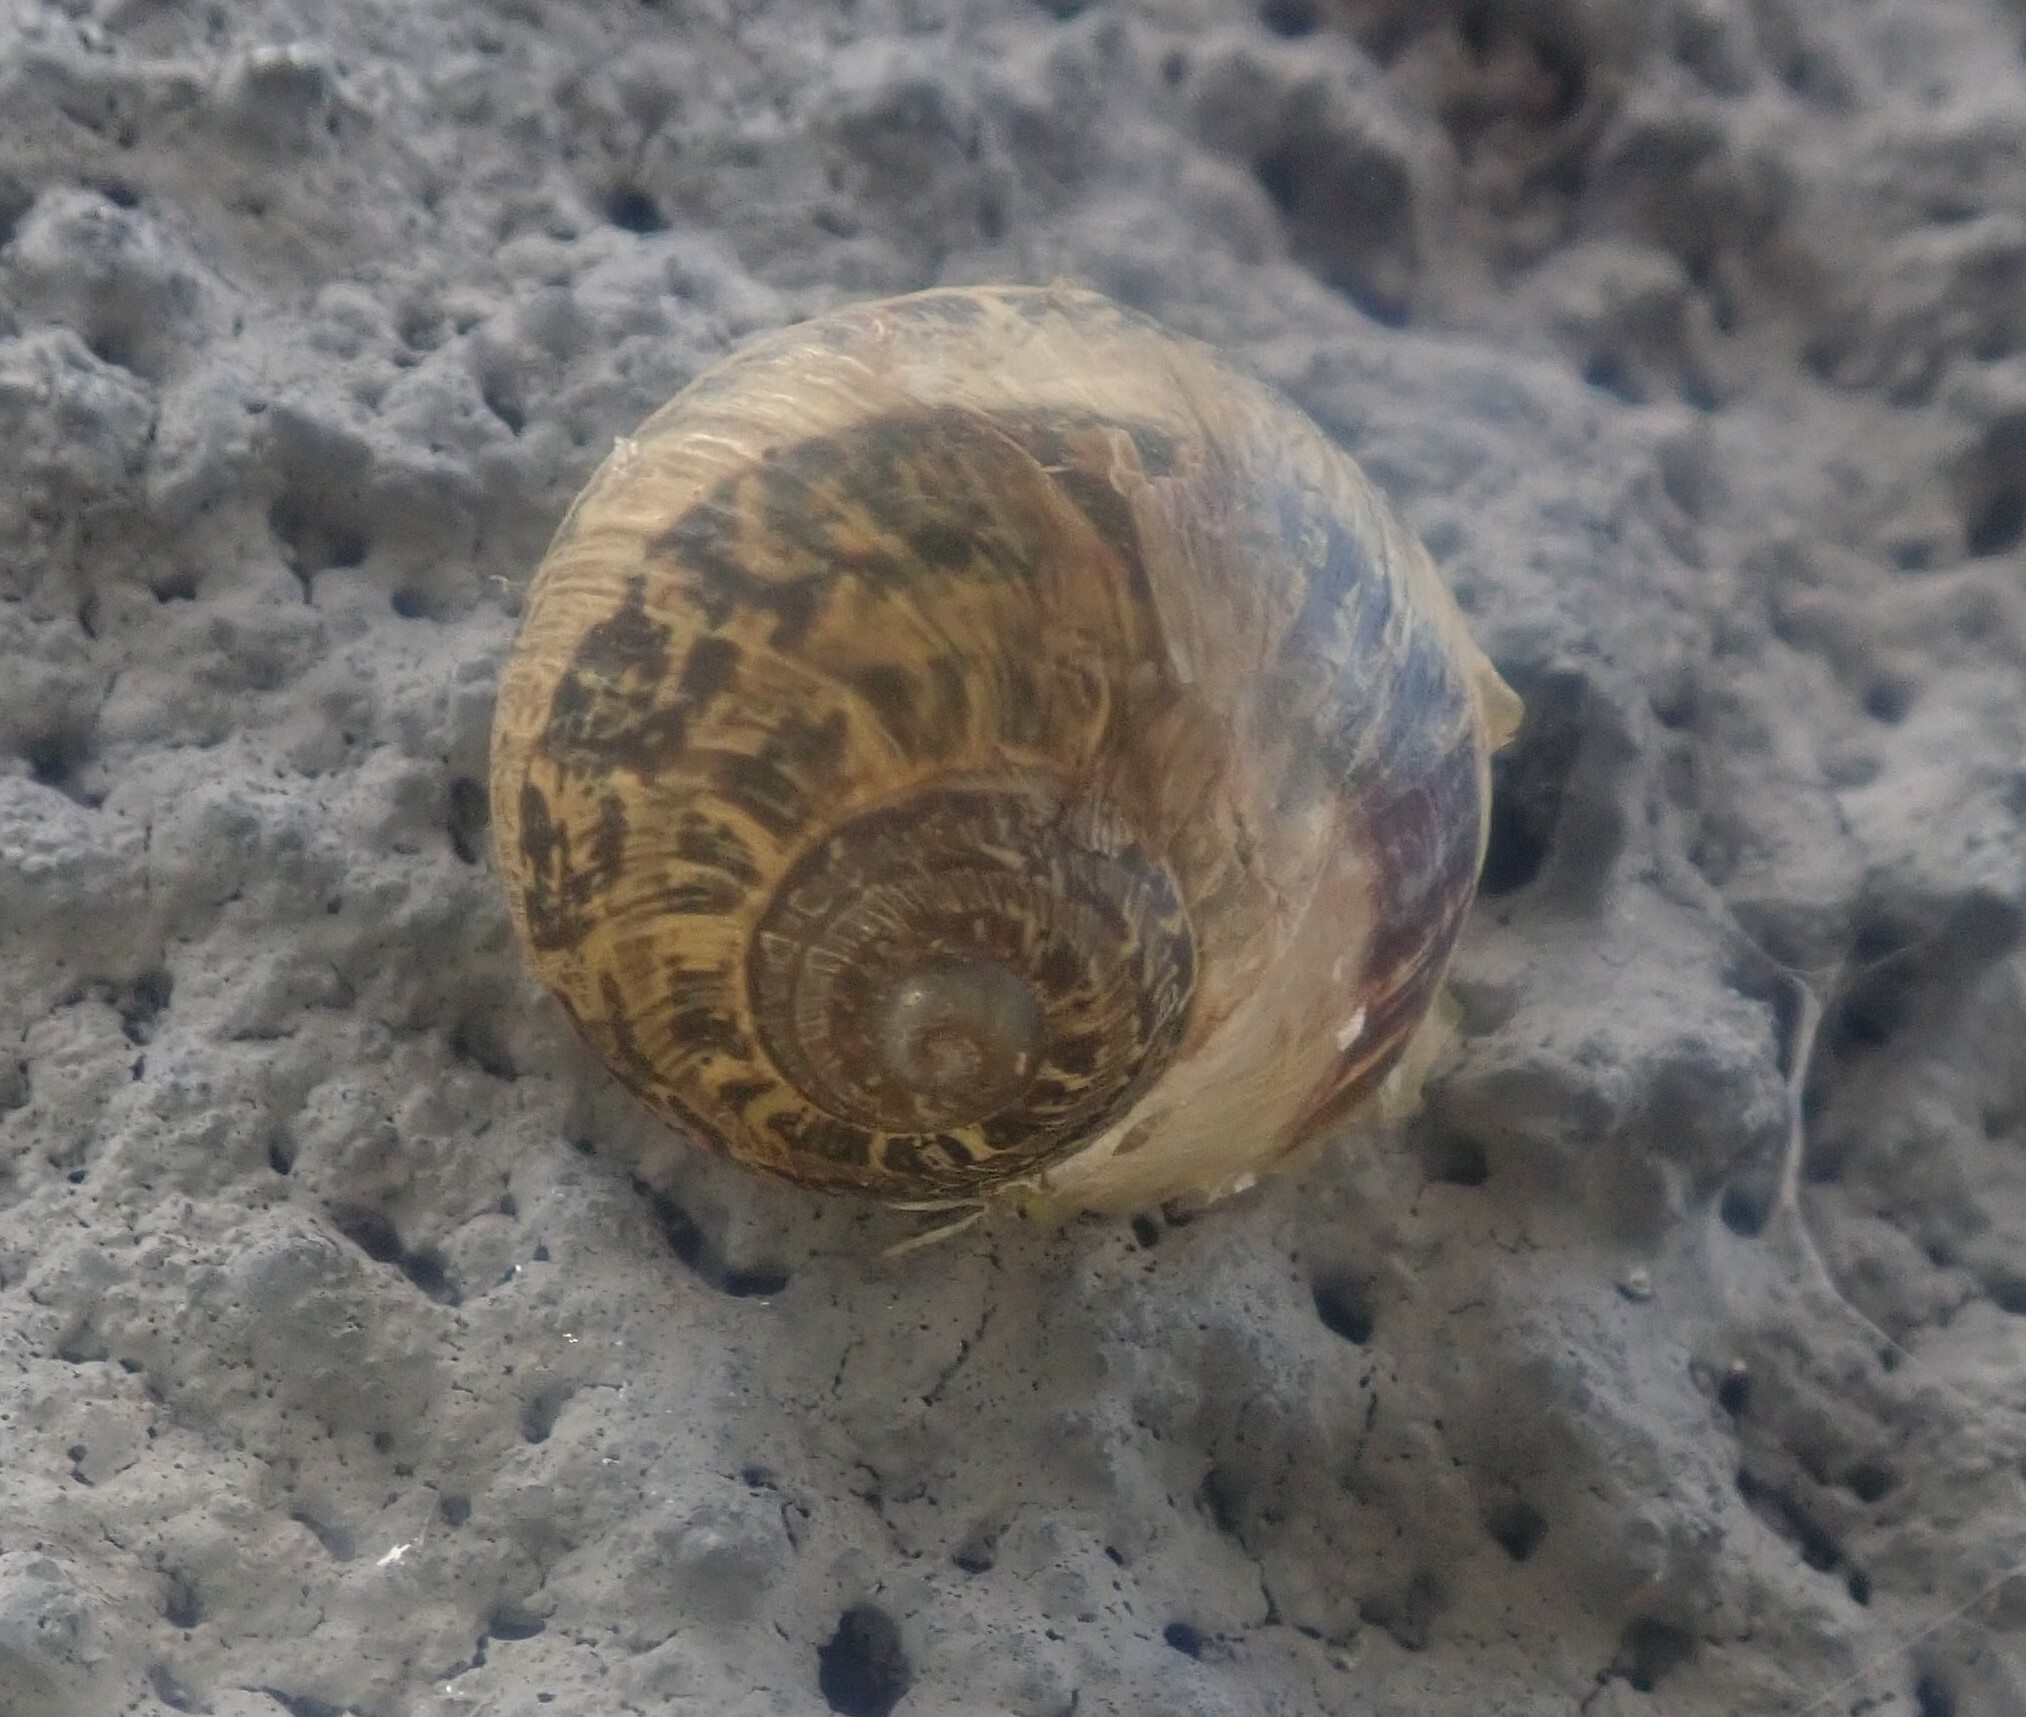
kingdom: Animalia
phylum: Mollusca
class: Gastropoda
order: Stylommatophora
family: Helicidae
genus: Cornu
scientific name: Cornu aspersum
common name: Brown garden snail
